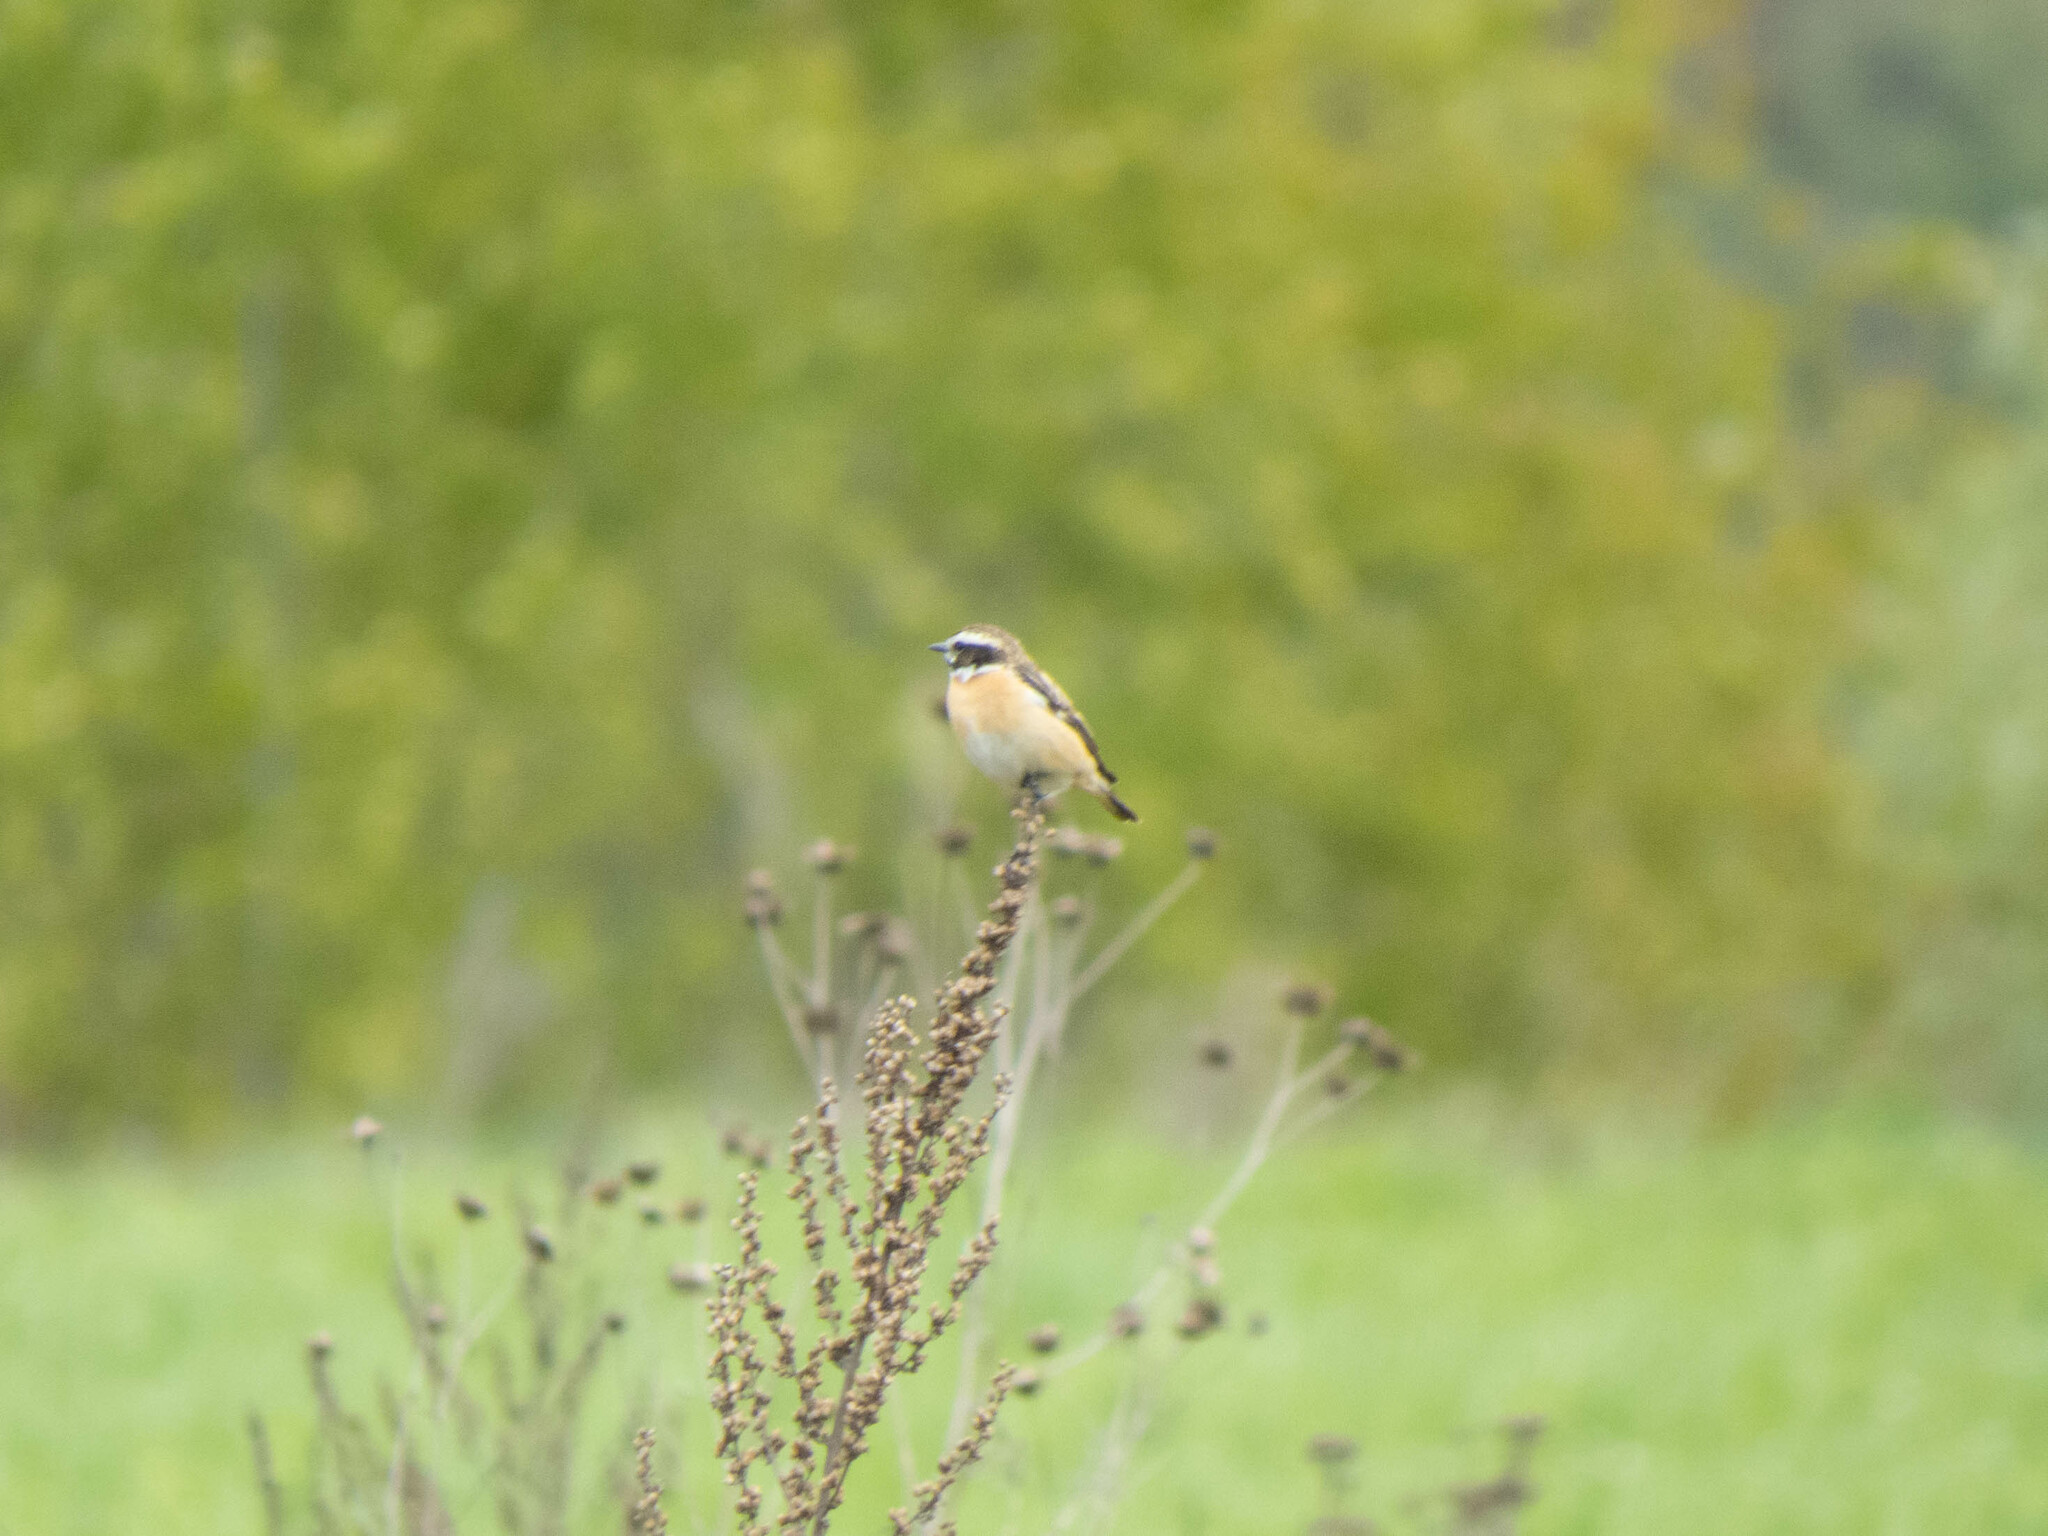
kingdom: Animalia
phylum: Chordata
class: Aves
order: Passeriformes
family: Muscicapidae
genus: Saxicola
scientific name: Saxicola rubetra
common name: Whinchat
